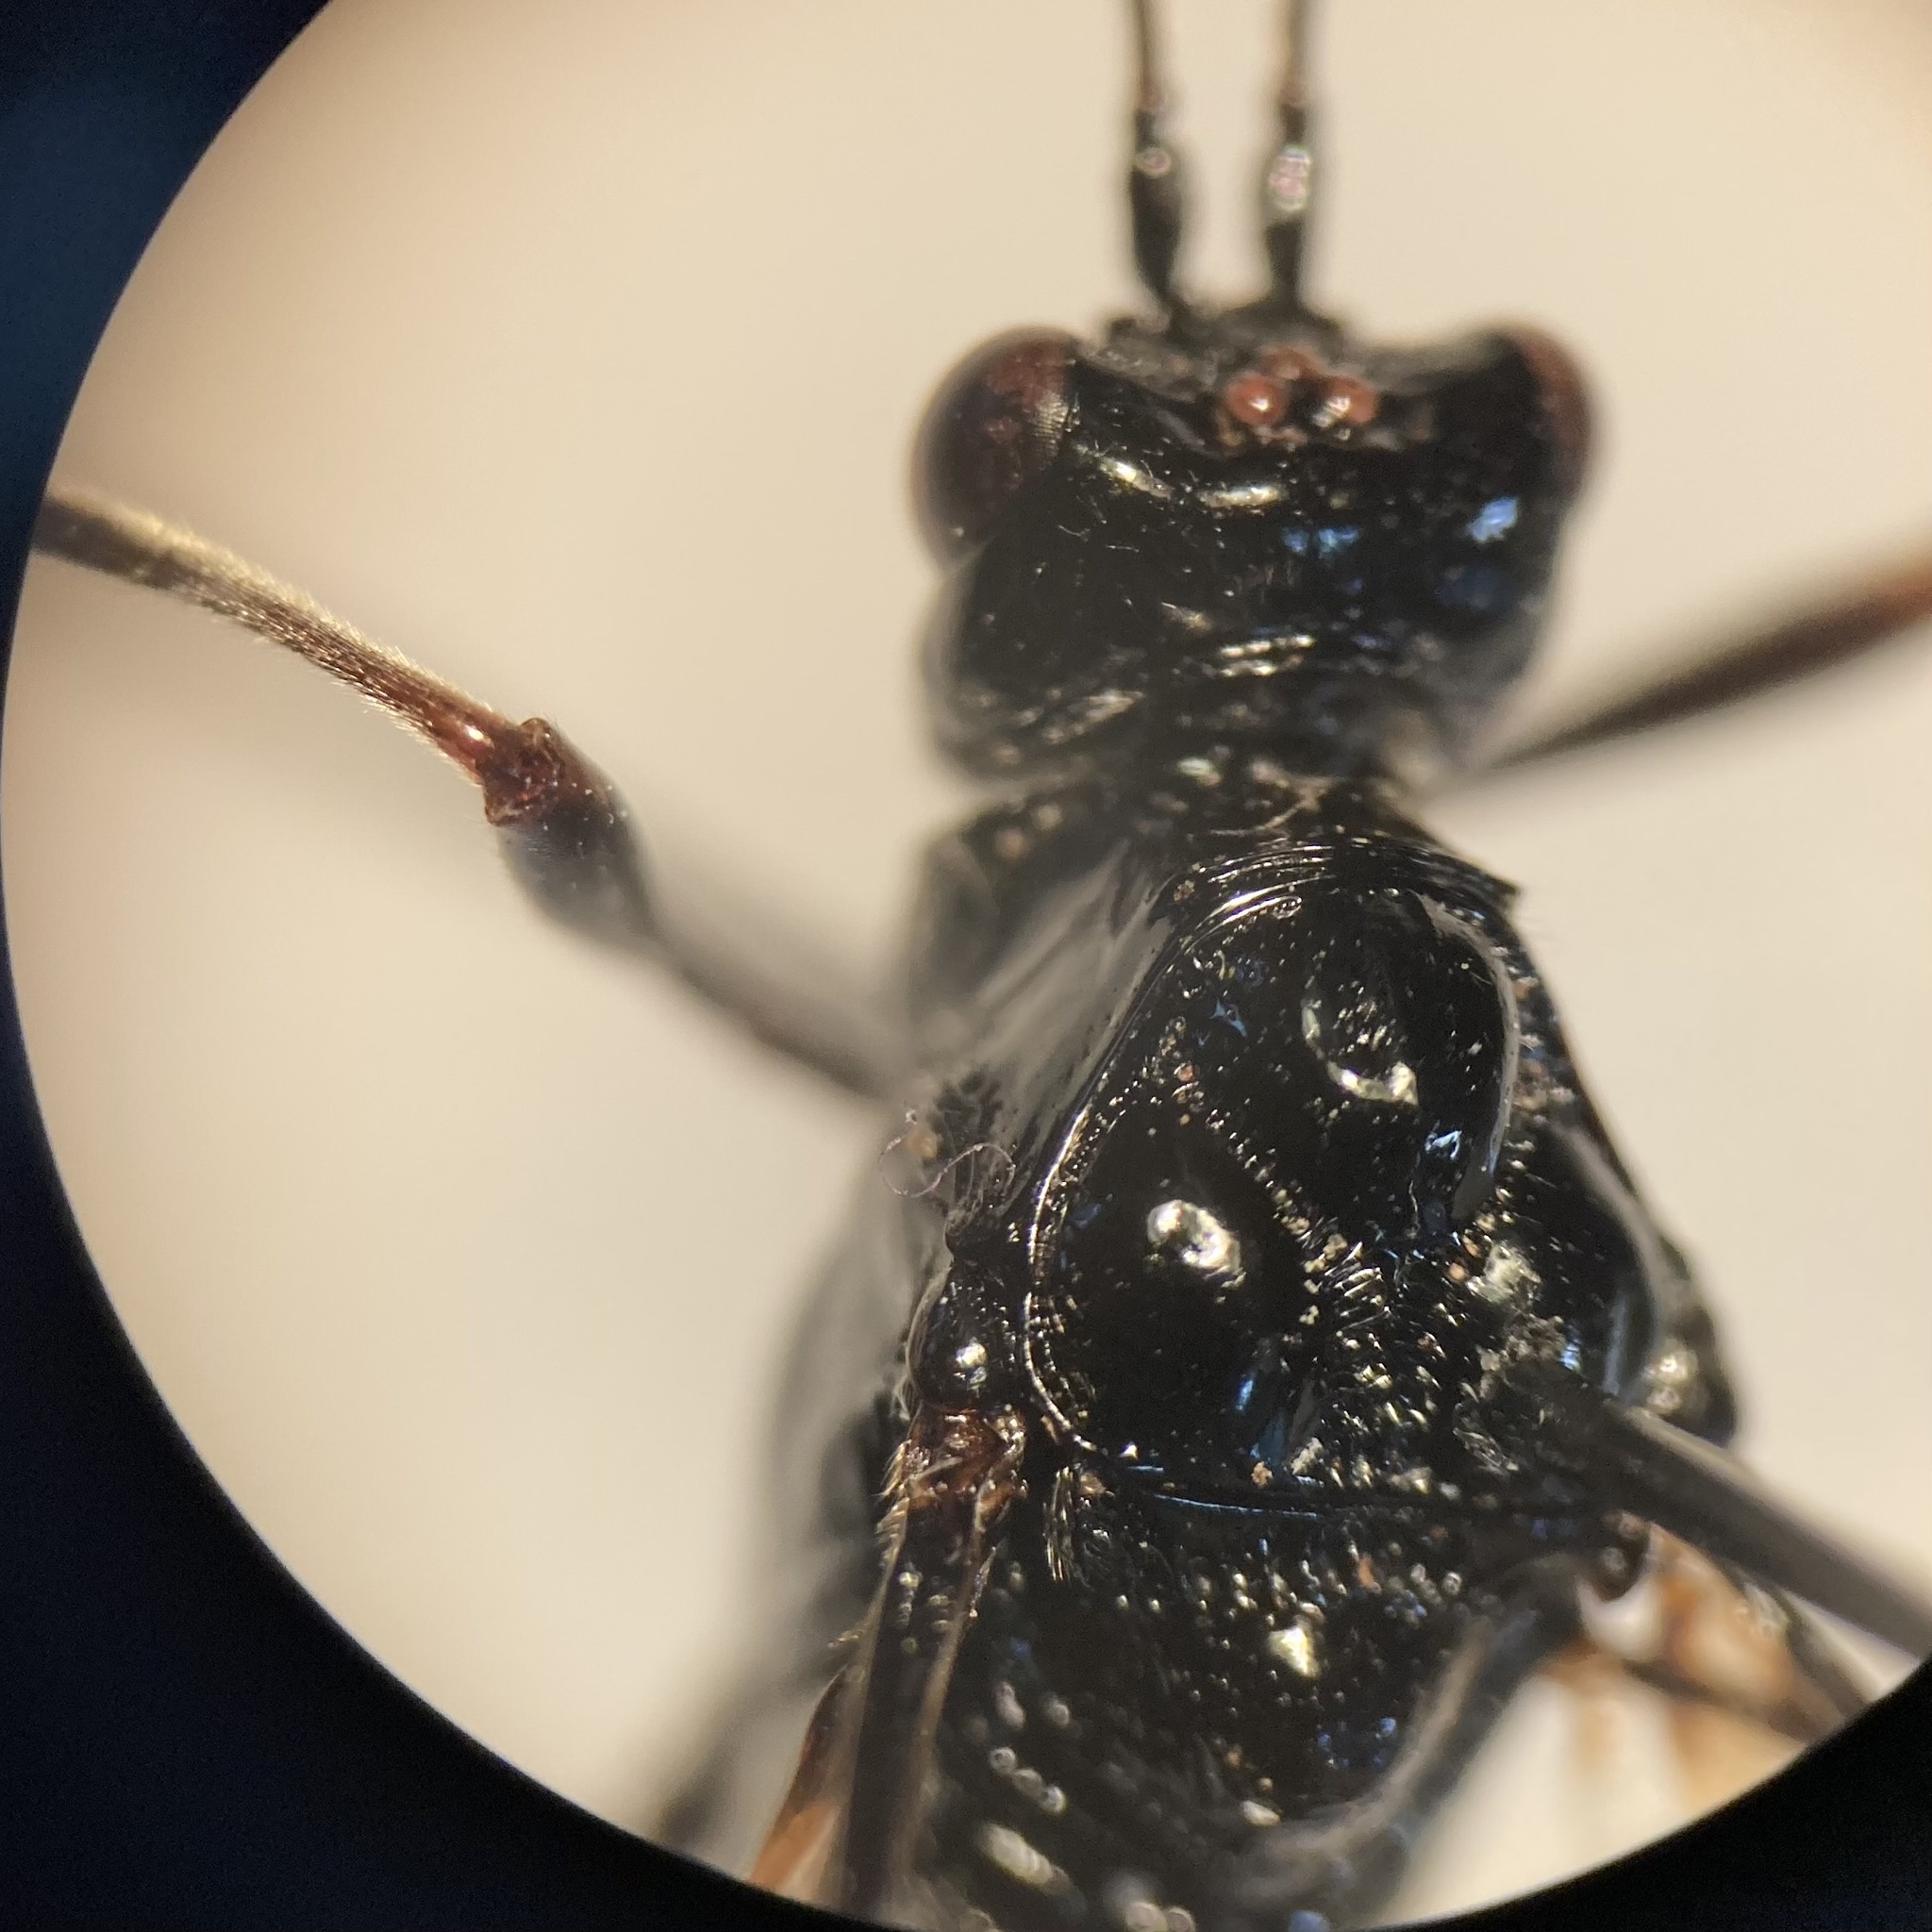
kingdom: Animalia
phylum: Arthropoda
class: Insecta
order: Hymenoptera
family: Pelecinidae
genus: Pelecinus
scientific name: Pelecinus polyturator
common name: American pelecinid wasp
